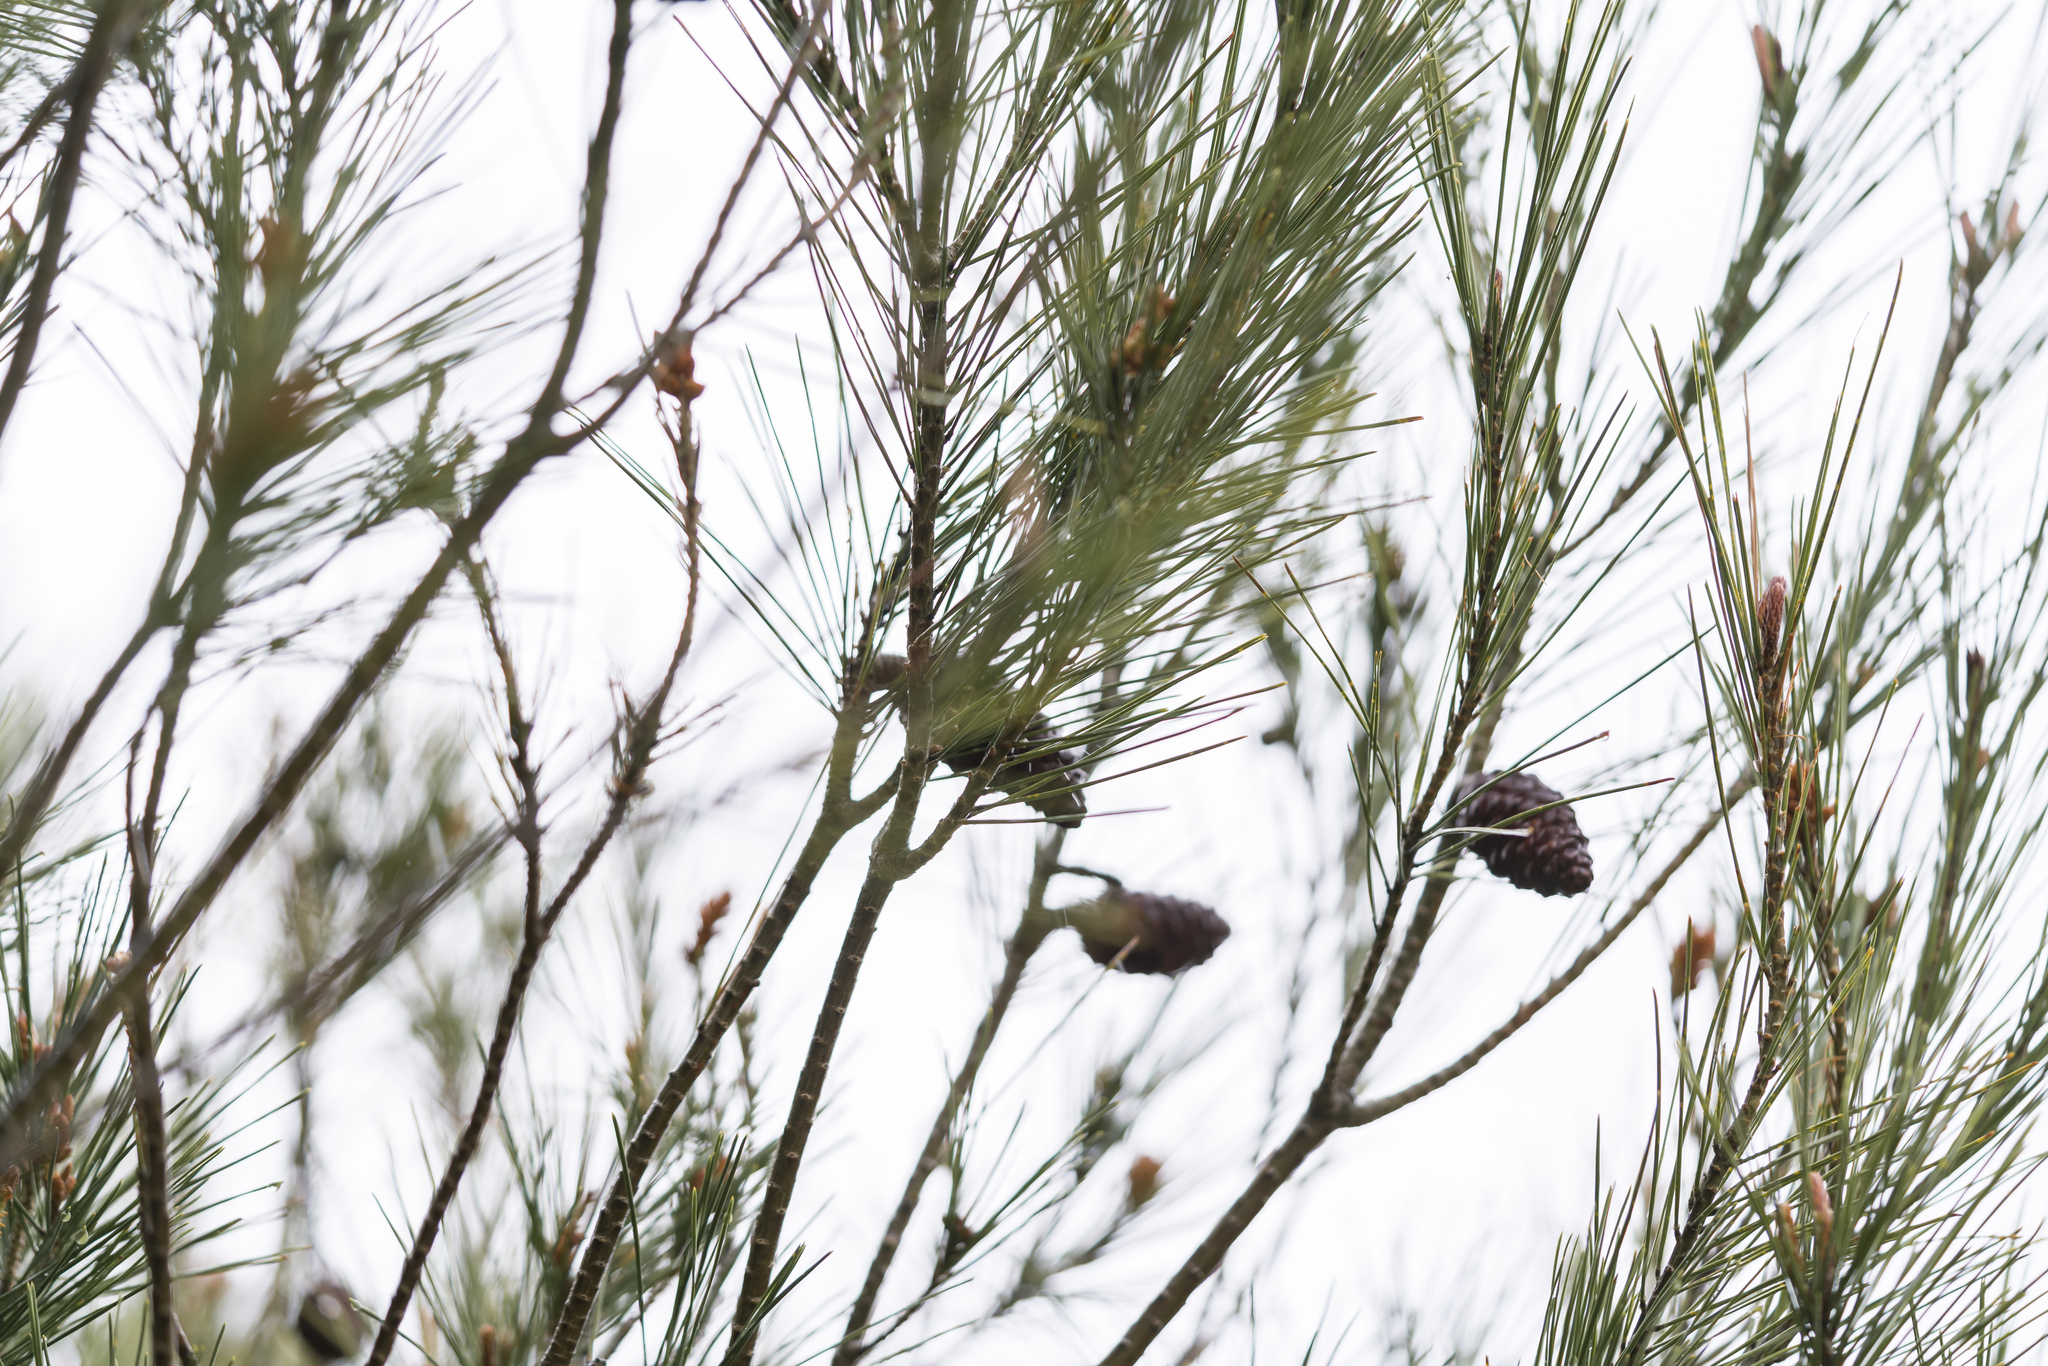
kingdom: Plantae
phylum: Tracheophyta
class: Pinopsida
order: Pinales
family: Pinaceae
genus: Pinus
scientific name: Pinus halepensis
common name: Aleppo pine
